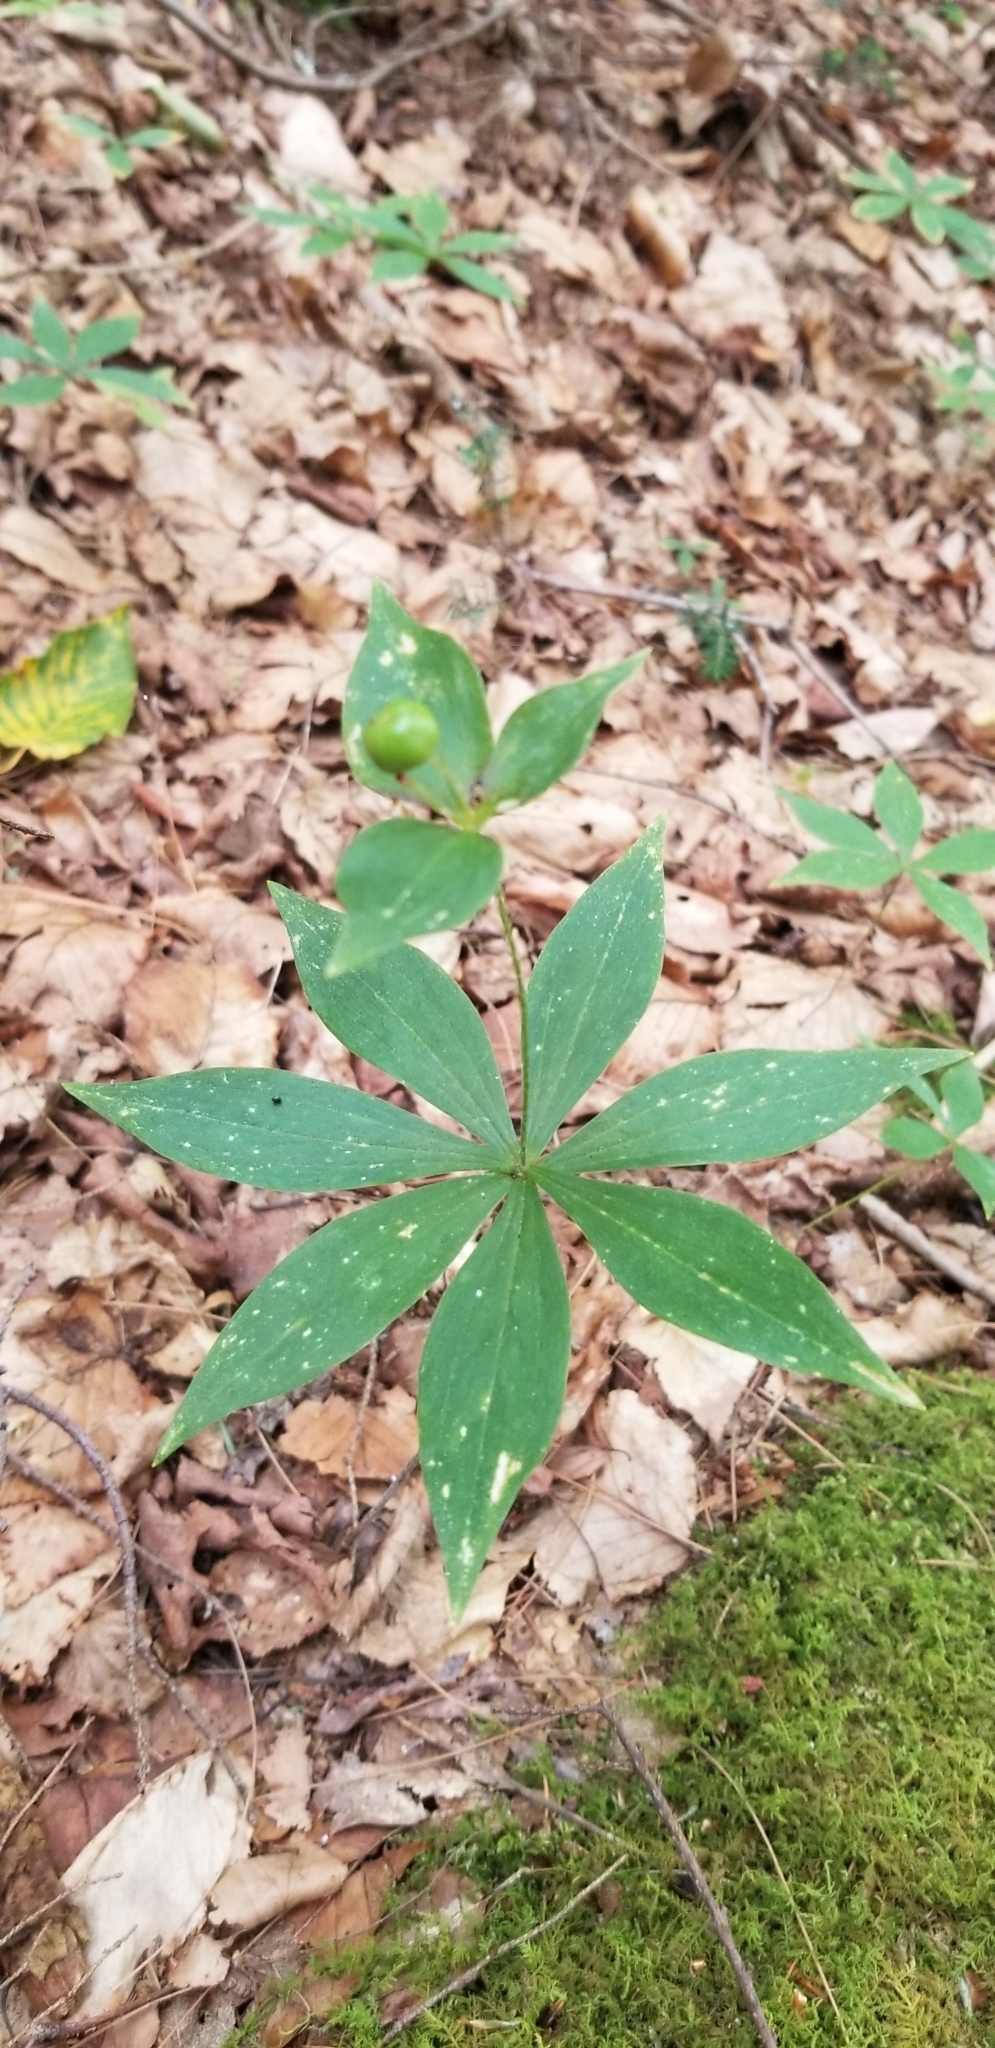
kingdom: Plantae
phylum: Tracheophyta
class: Liliopsida
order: Liliales
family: Liliaceae
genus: Medeola
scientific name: Medeola virginiana
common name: Indian cucumber-root
